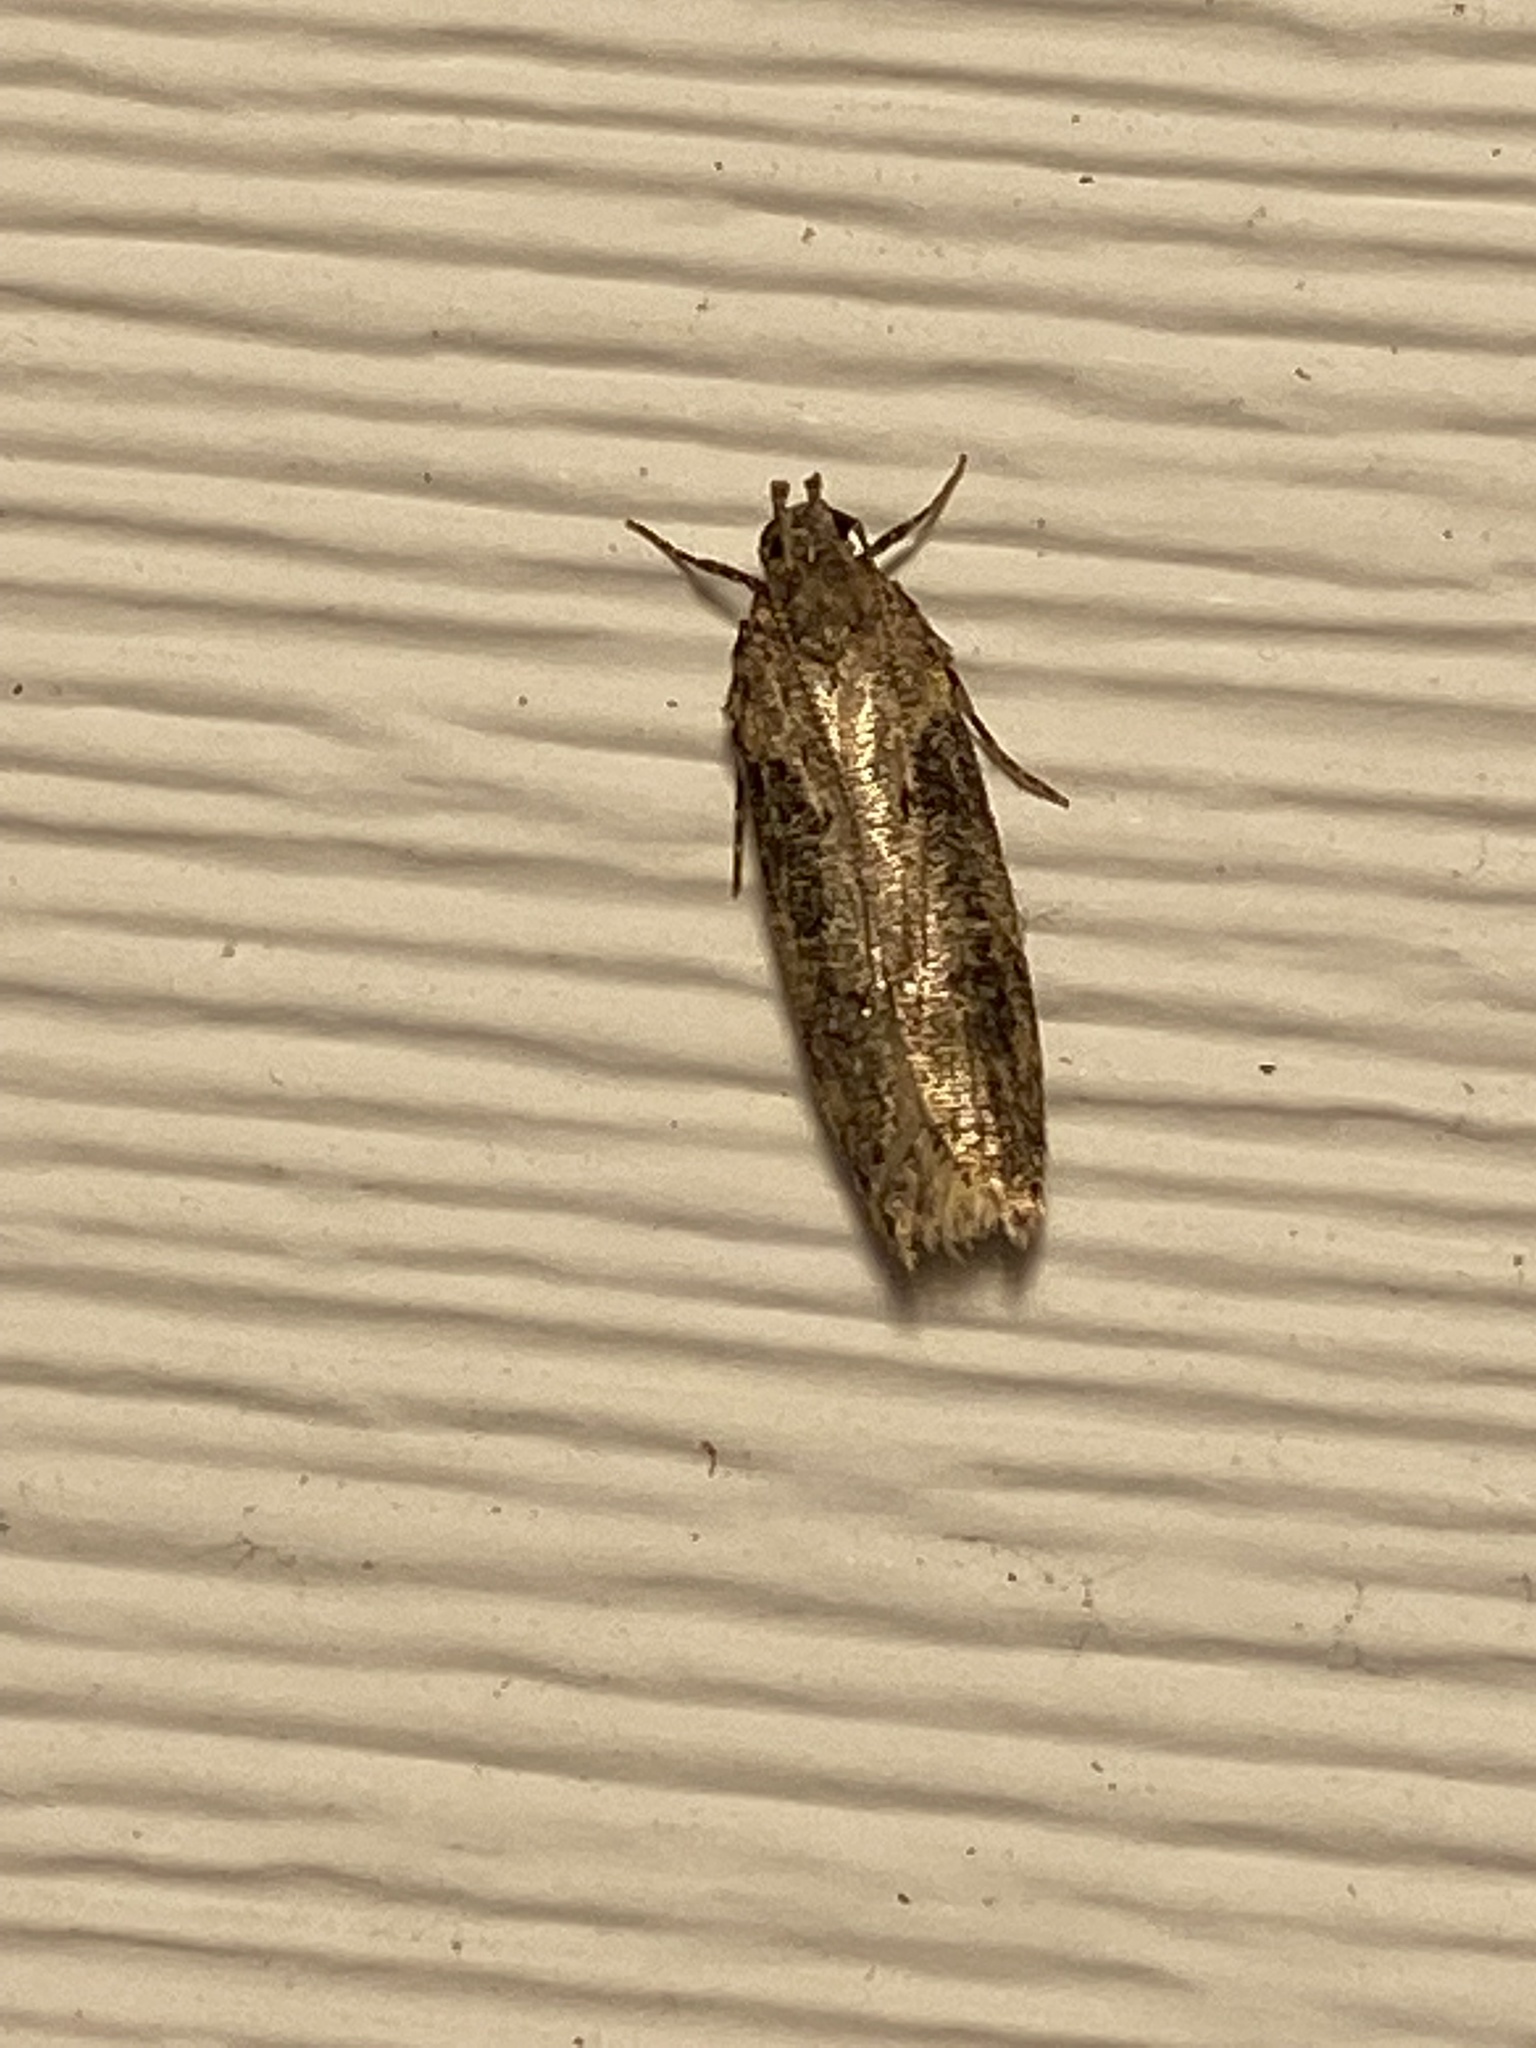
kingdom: Animalia
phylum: Arthropoda
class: Insecta
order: Lepidoptera
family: Gelechiidae
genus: Chionodes
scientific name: Chionodes mediofuscella
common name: Black-smudged chionodes moth
